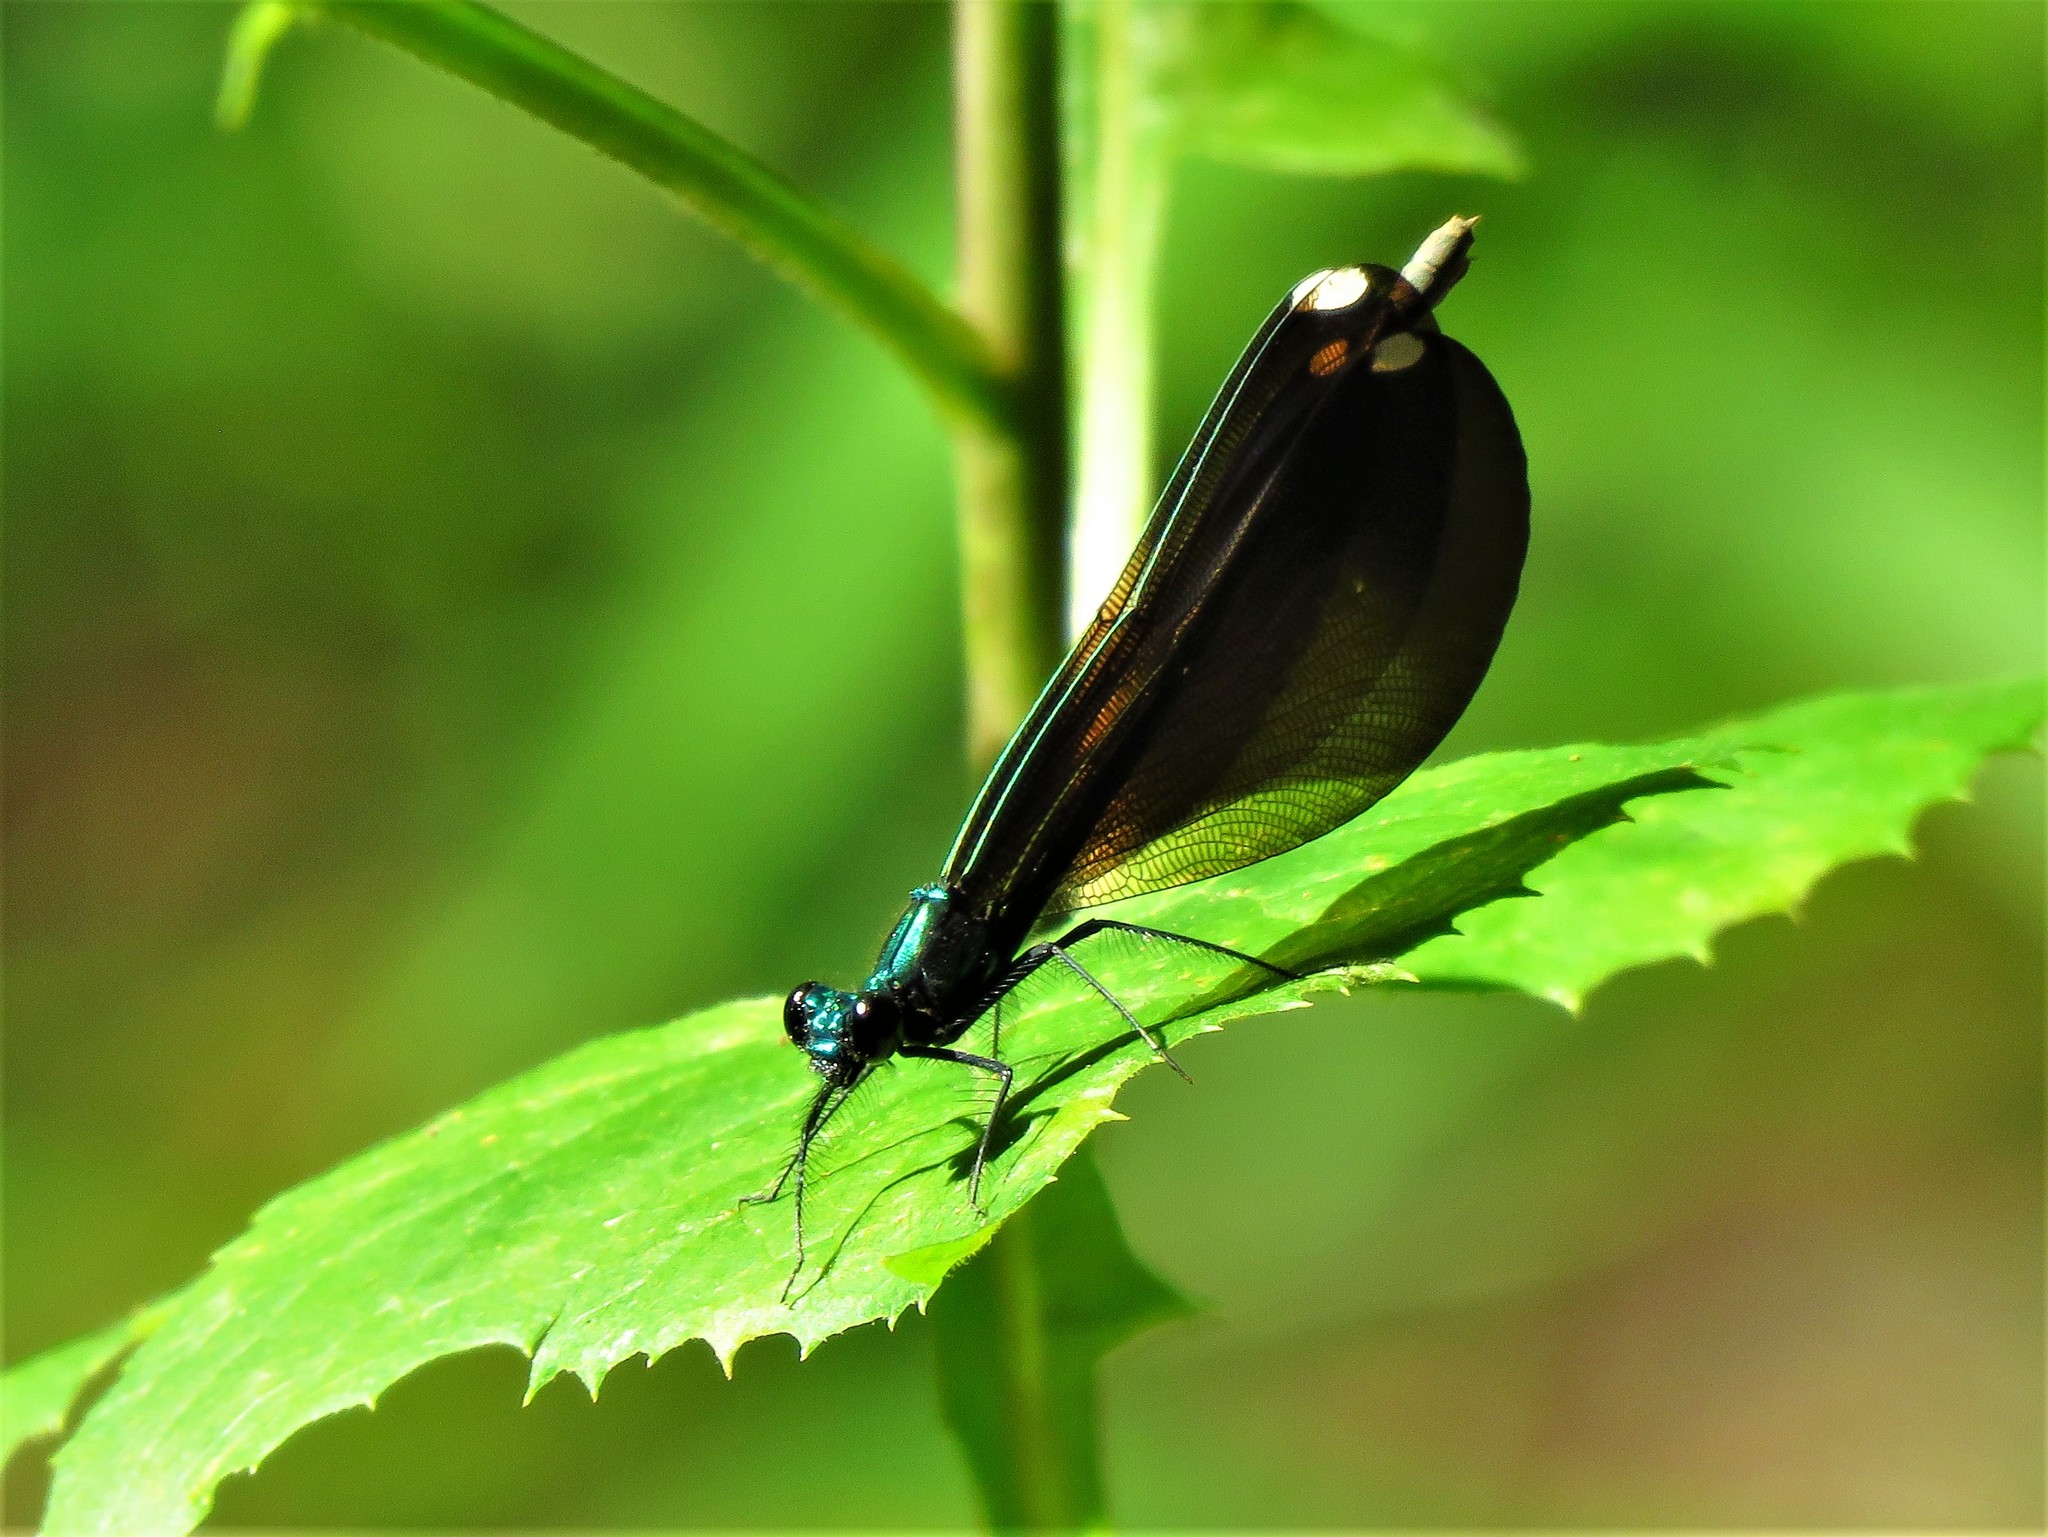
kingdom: Animalia
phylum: Arthropoda
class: Insecta
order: Odonata
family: Calopterygidae
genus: Calopteryx
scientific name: Calopteryx maculata
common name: Ebony jewelwing
